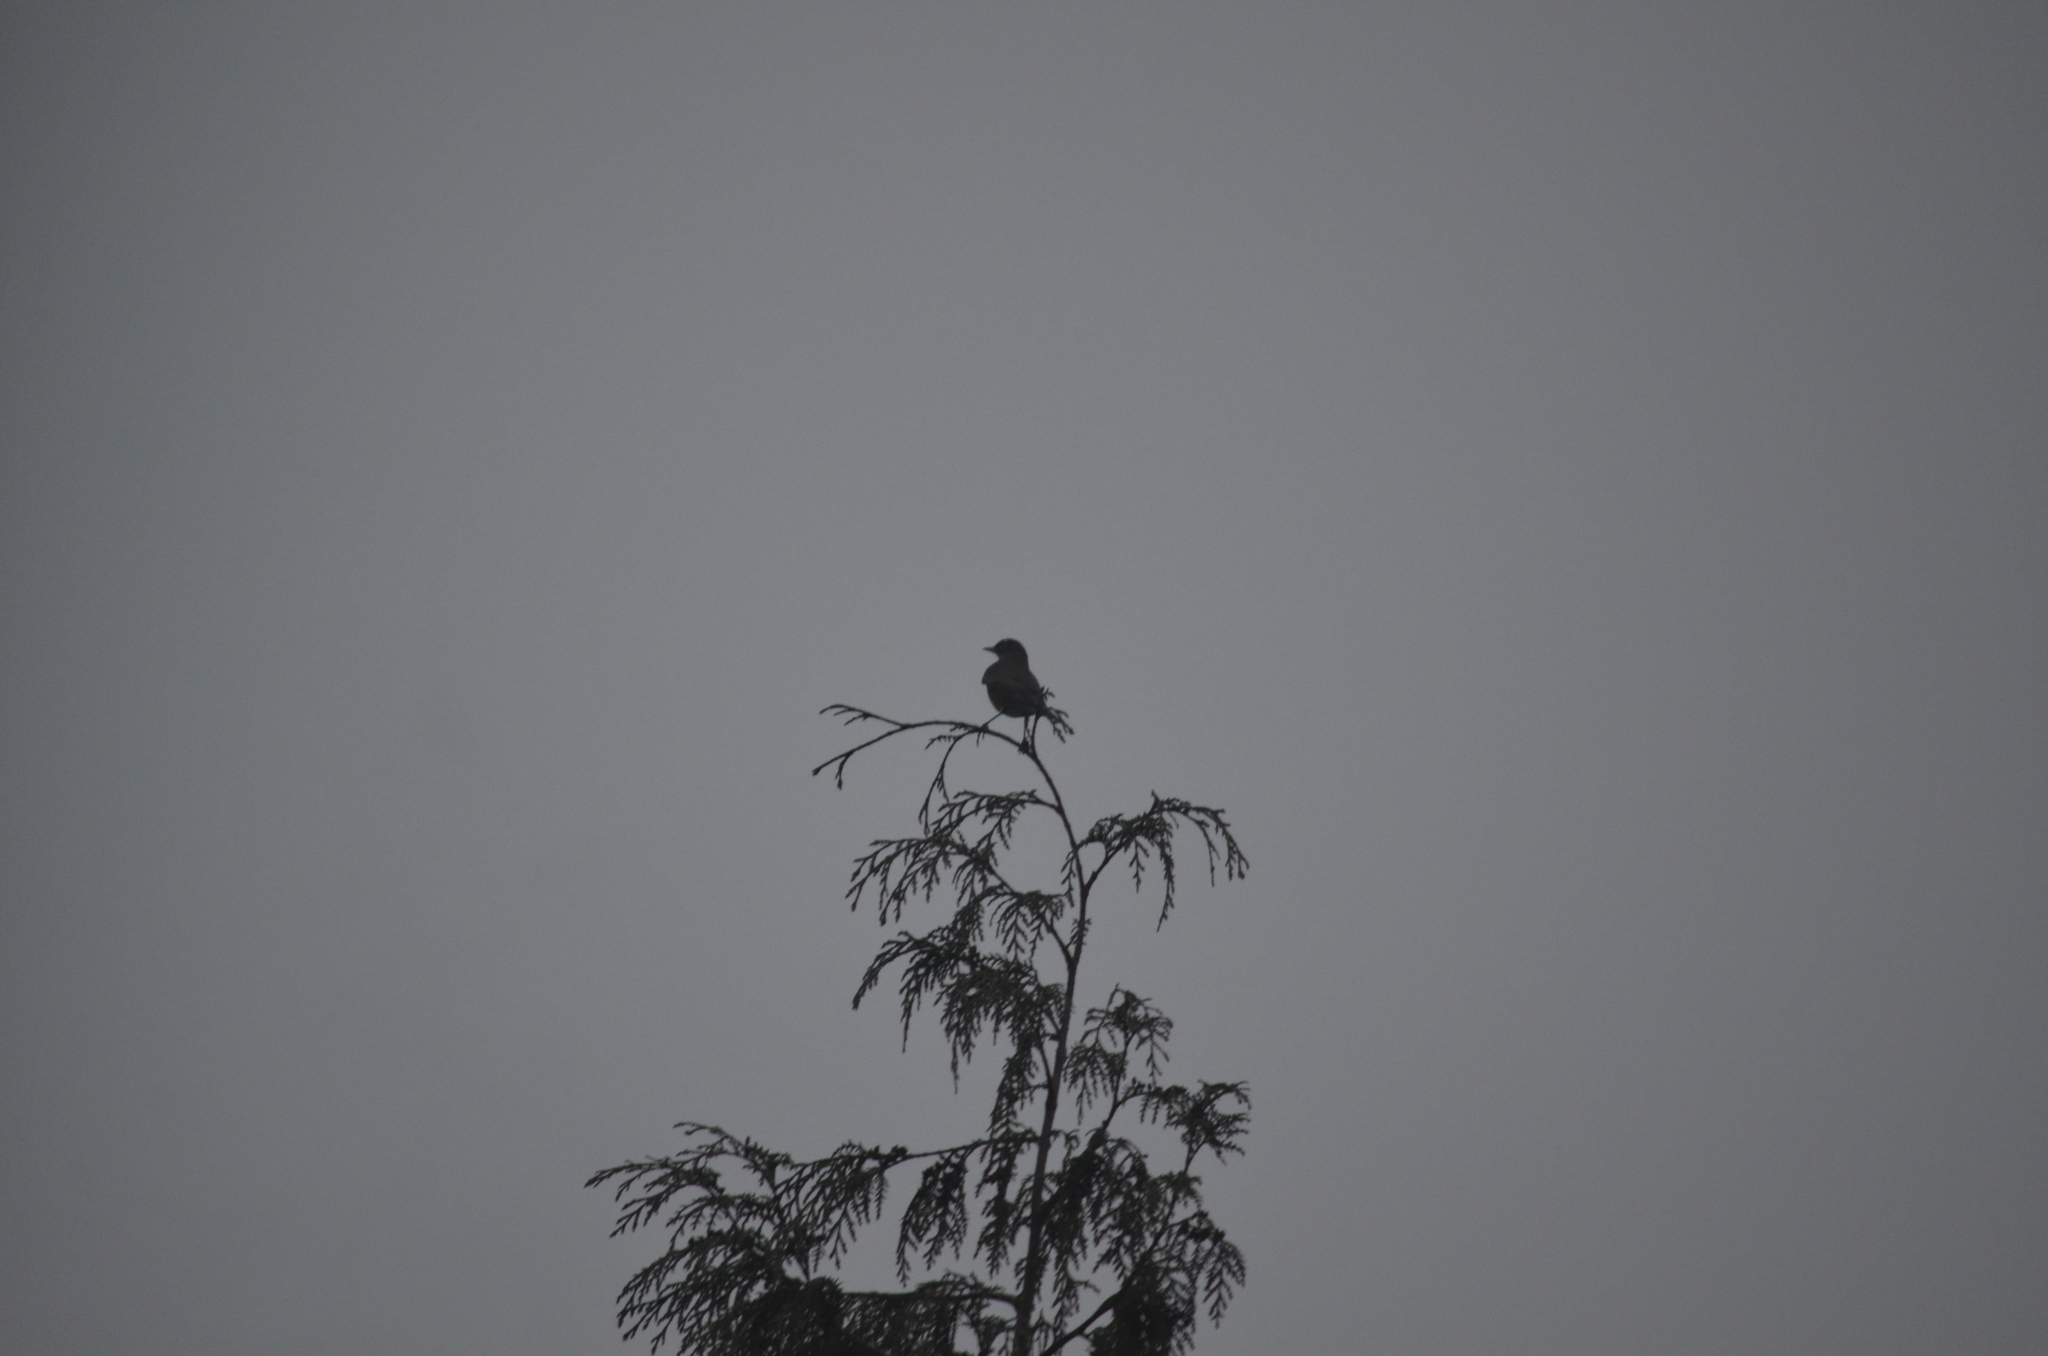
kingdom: Animalia
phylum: Chordata
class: Aves
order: Passeriformes
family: Turdidae
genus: Turdus
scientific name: Turdus migratorius
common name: American robin
